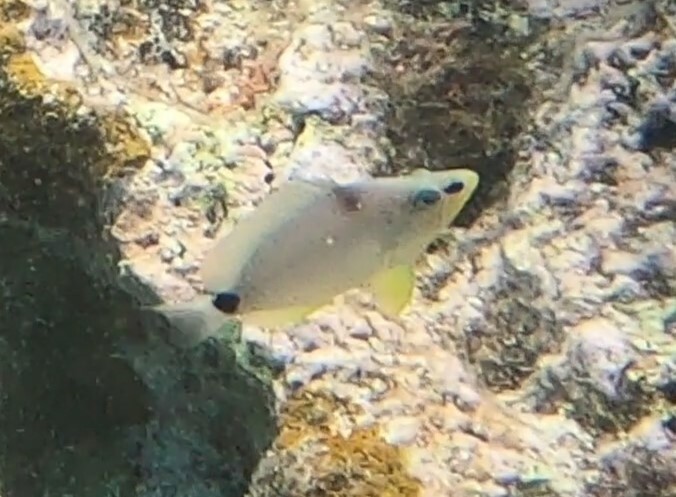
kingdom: Animalia
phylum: Chordata
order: Perciformes
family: Serranidae
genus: Hypoplectrus
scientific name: Hypoplectrus unicolor
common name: Butter hamlet
